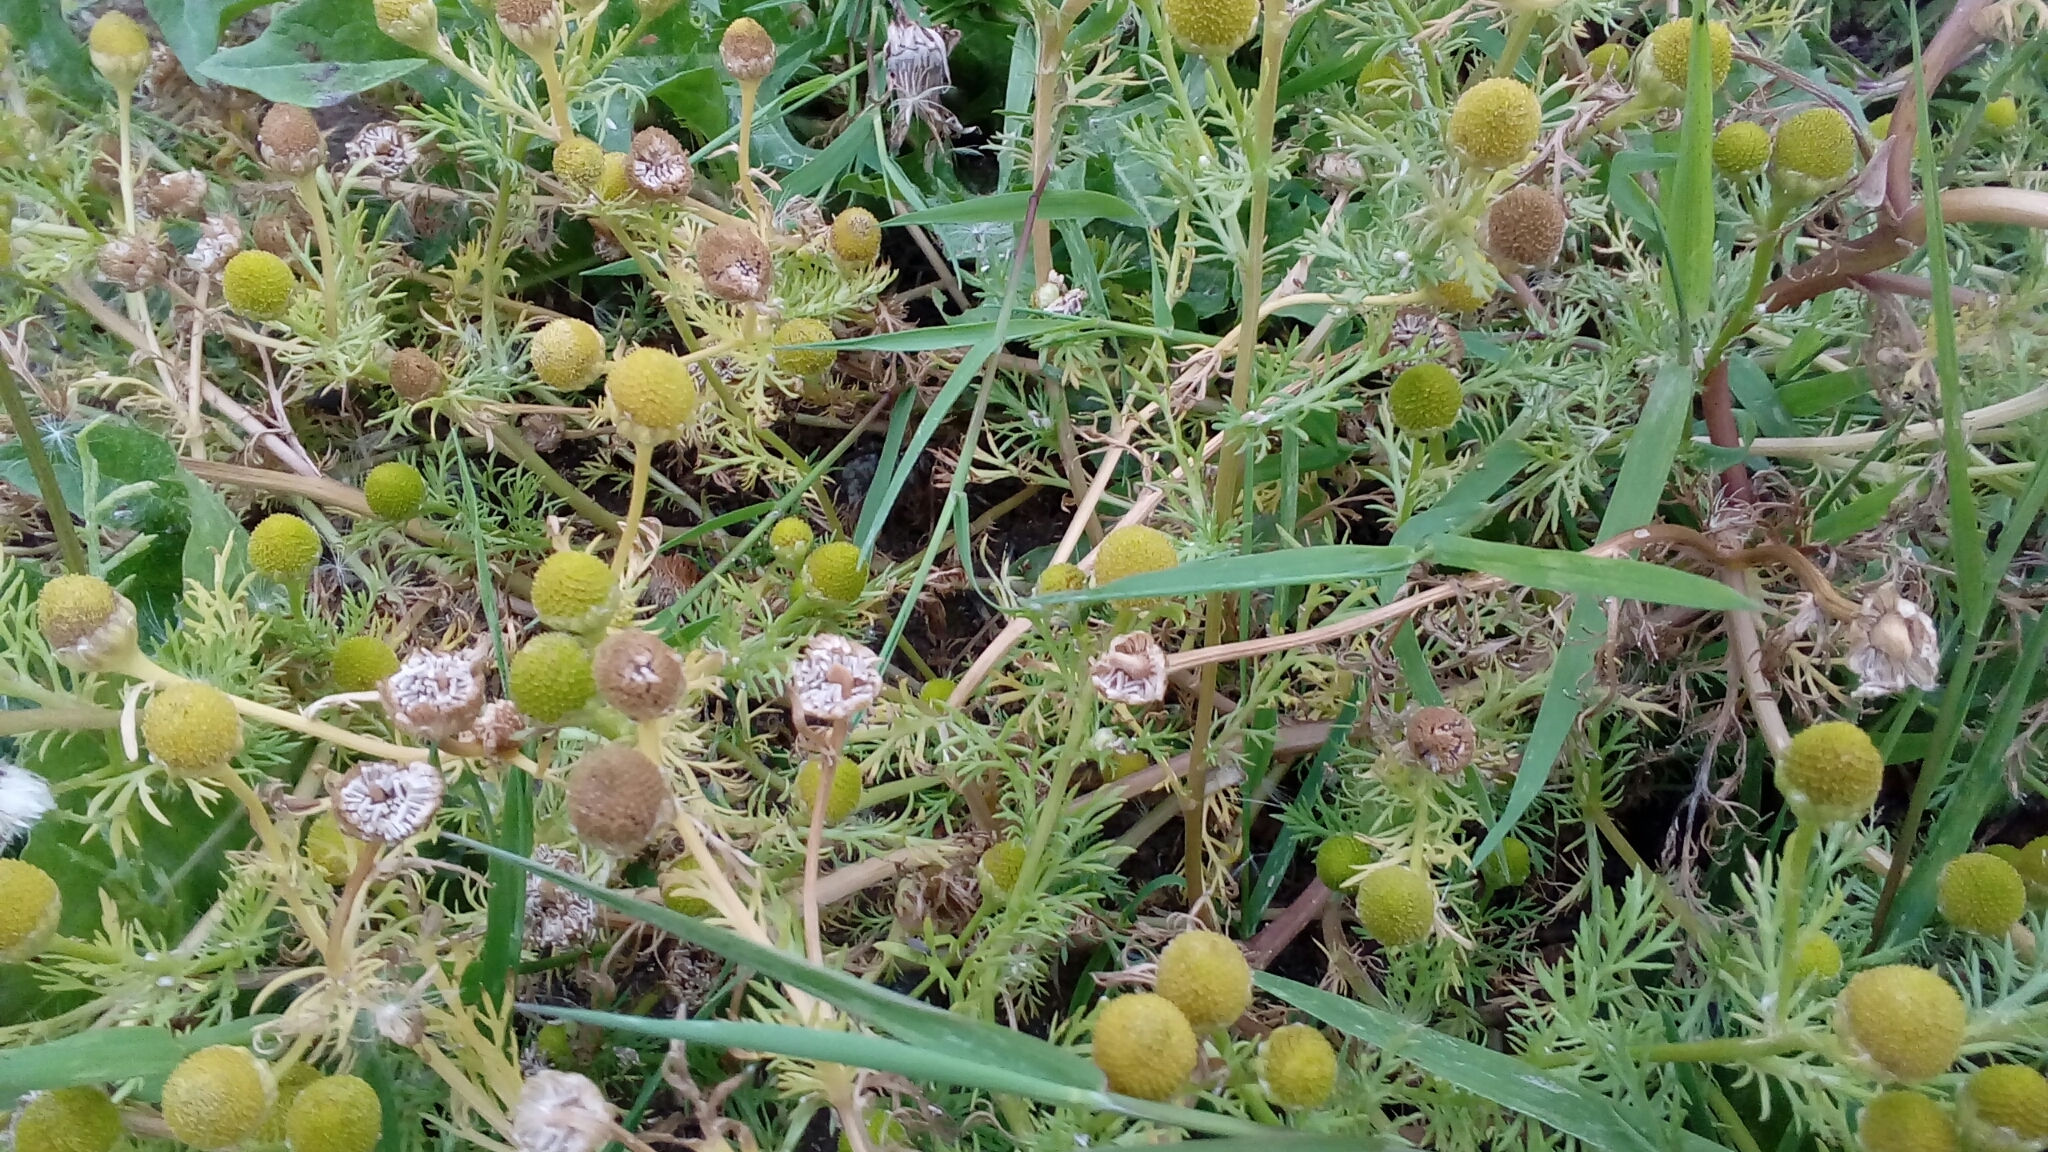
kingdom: Plantae
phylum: Tracheophyta
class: Magnoliopsida
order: Asterales
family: Asteraceae
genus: Matricaria
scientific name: Matricaria discoidea
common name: Disc mayweed
